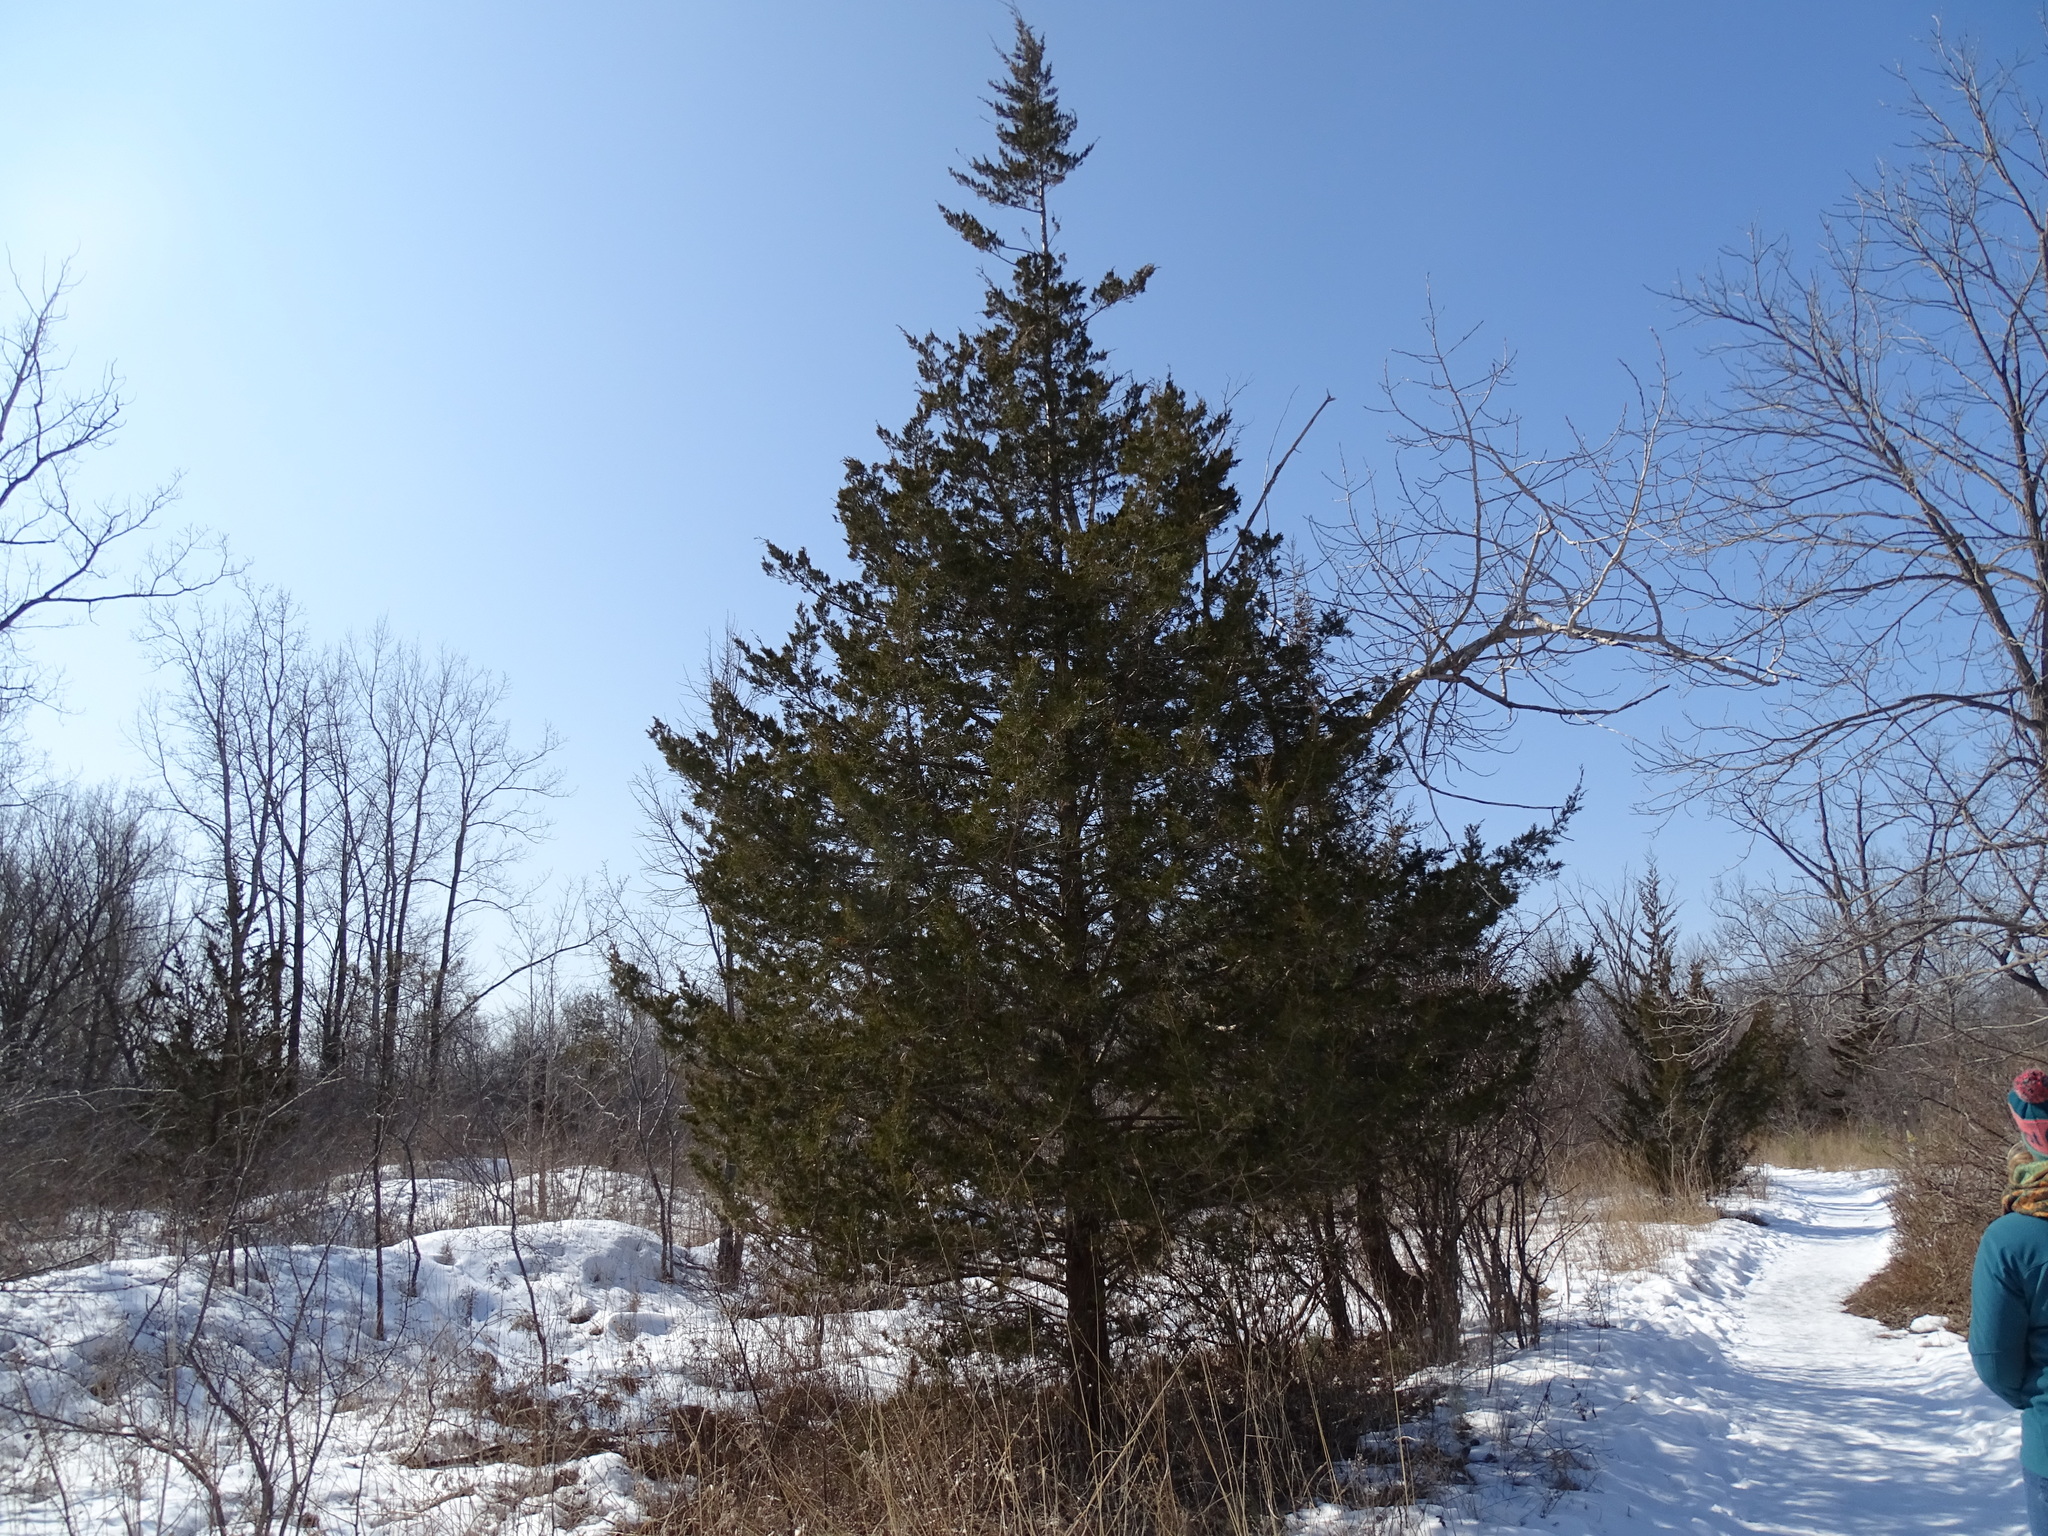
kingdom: Plantae
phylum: Tracheophyta
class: Pinopsida
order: Pinales
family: Cupressaceae
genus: Juniperus
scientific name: Juniperus virginiana
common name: Red juniper
